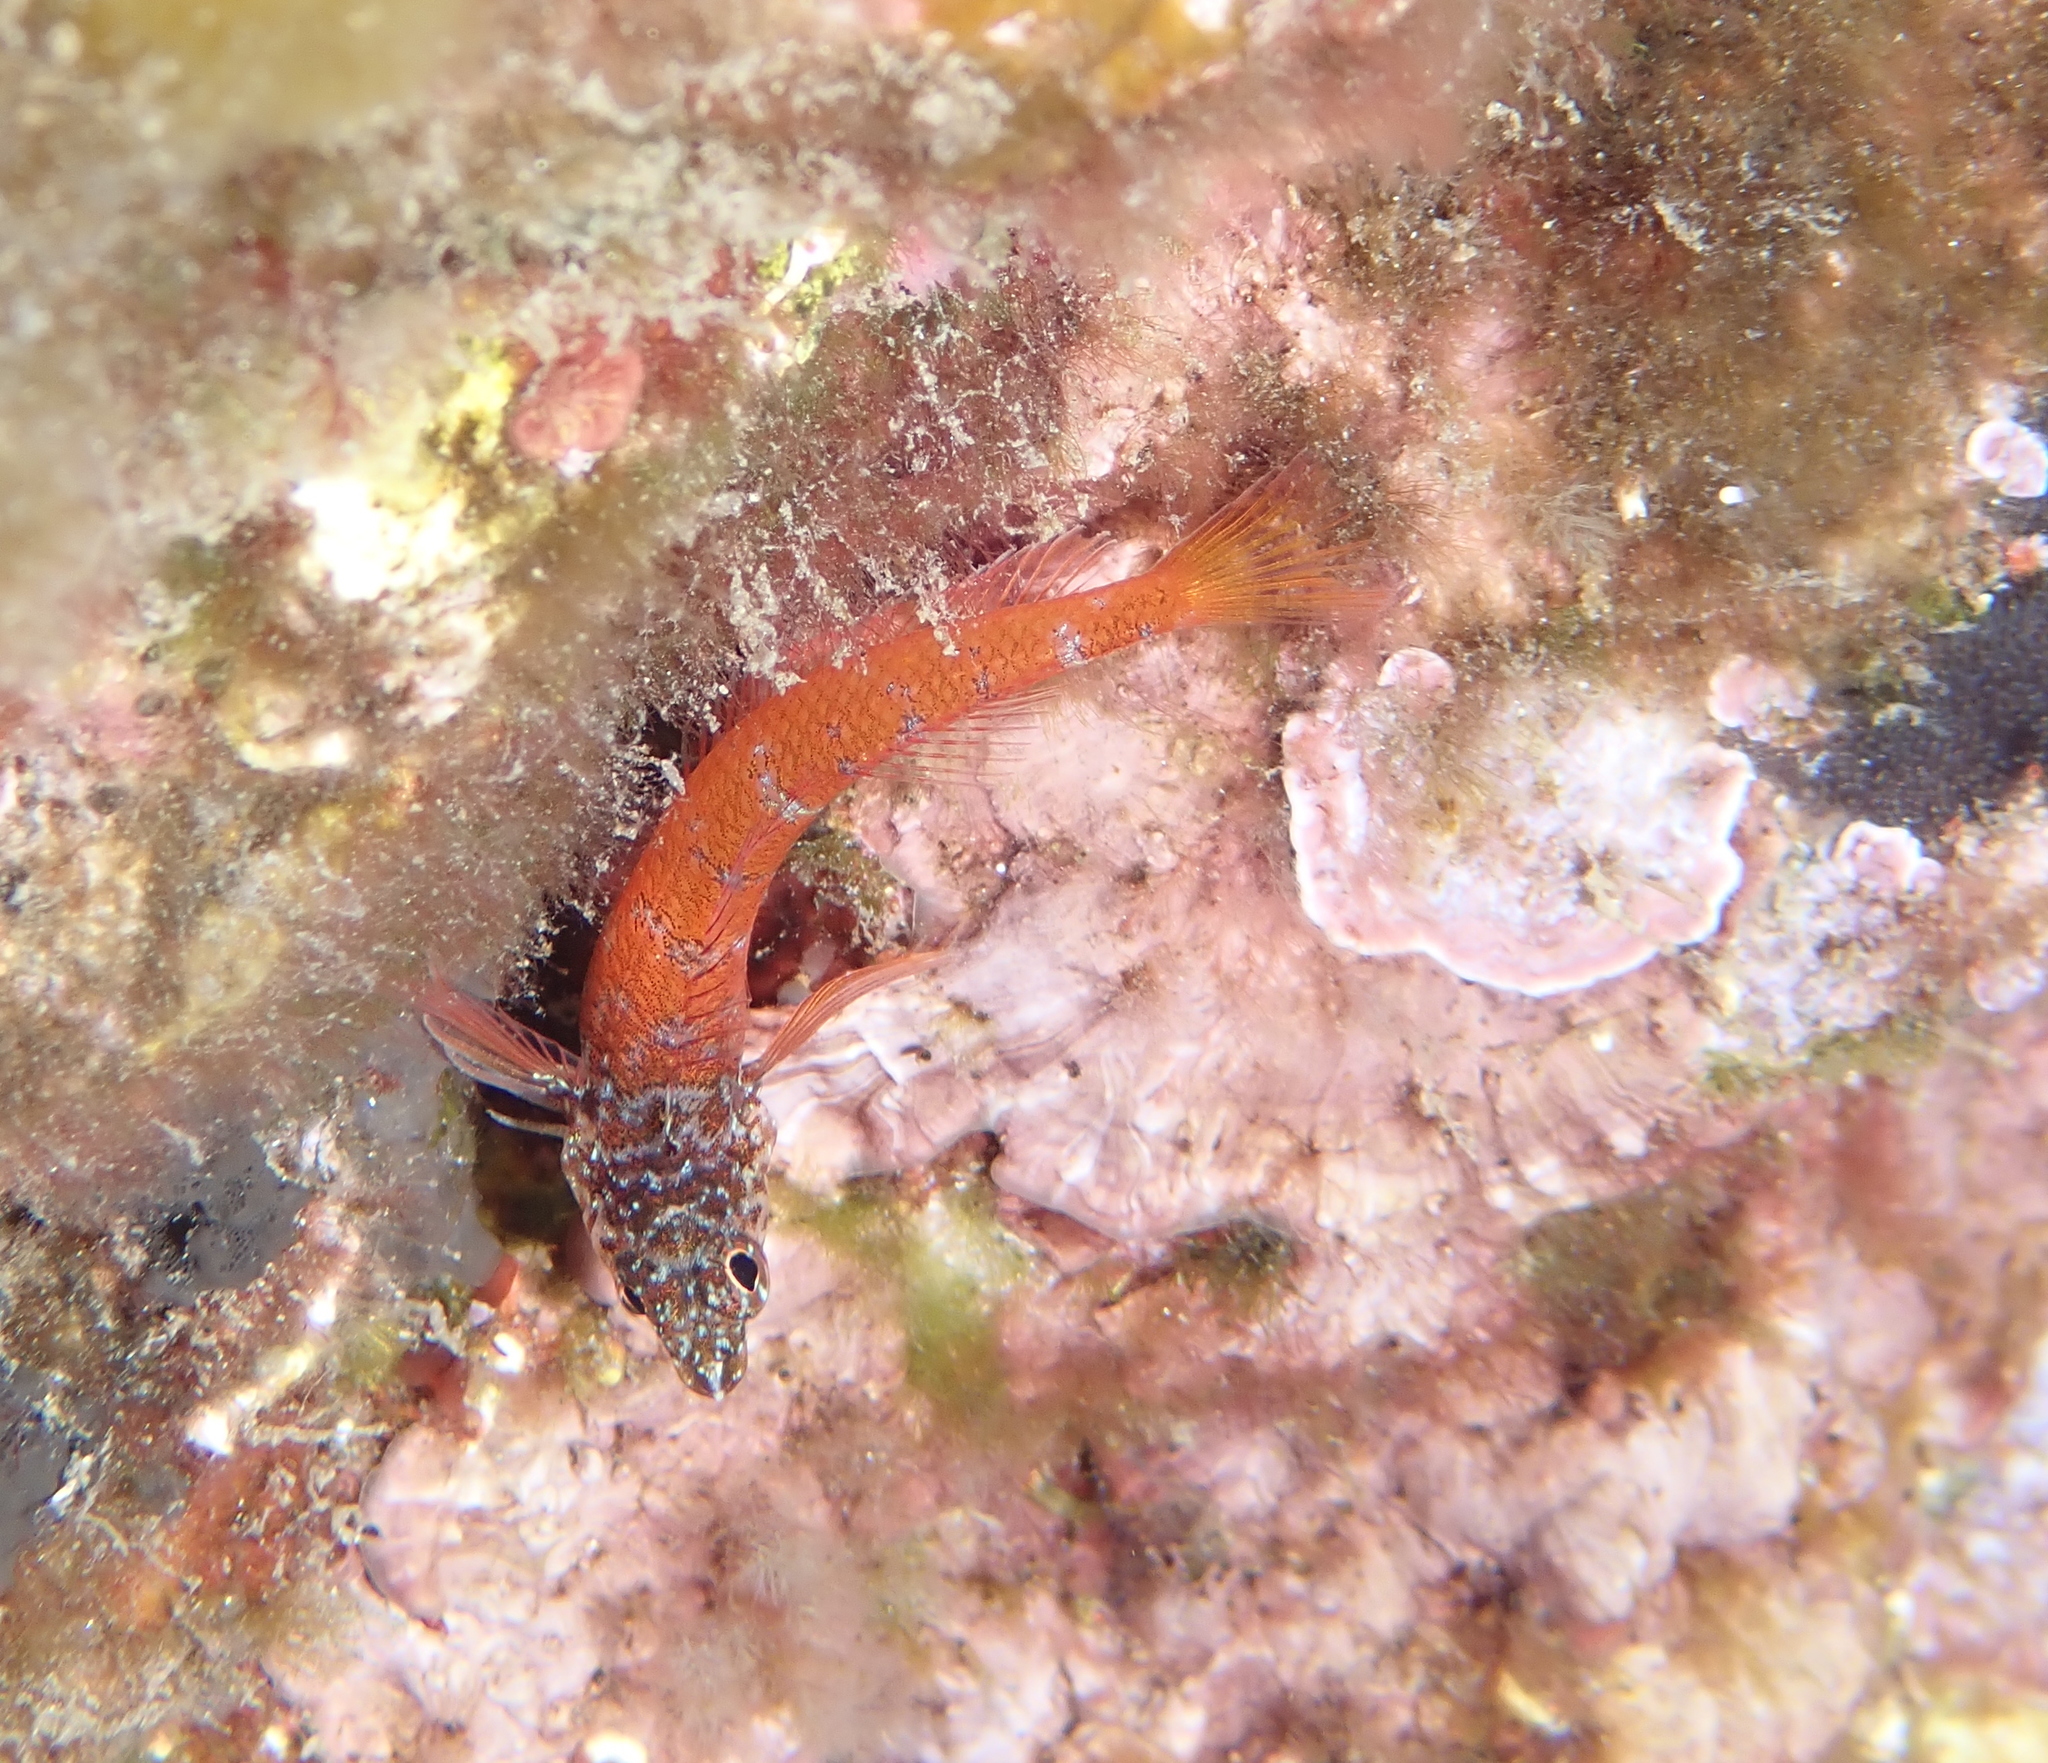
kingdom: Animalia
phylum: Chordata
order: Perciformes
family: Tripterygiidae
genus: Tripterygion
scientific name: Tripterygion melanurum
